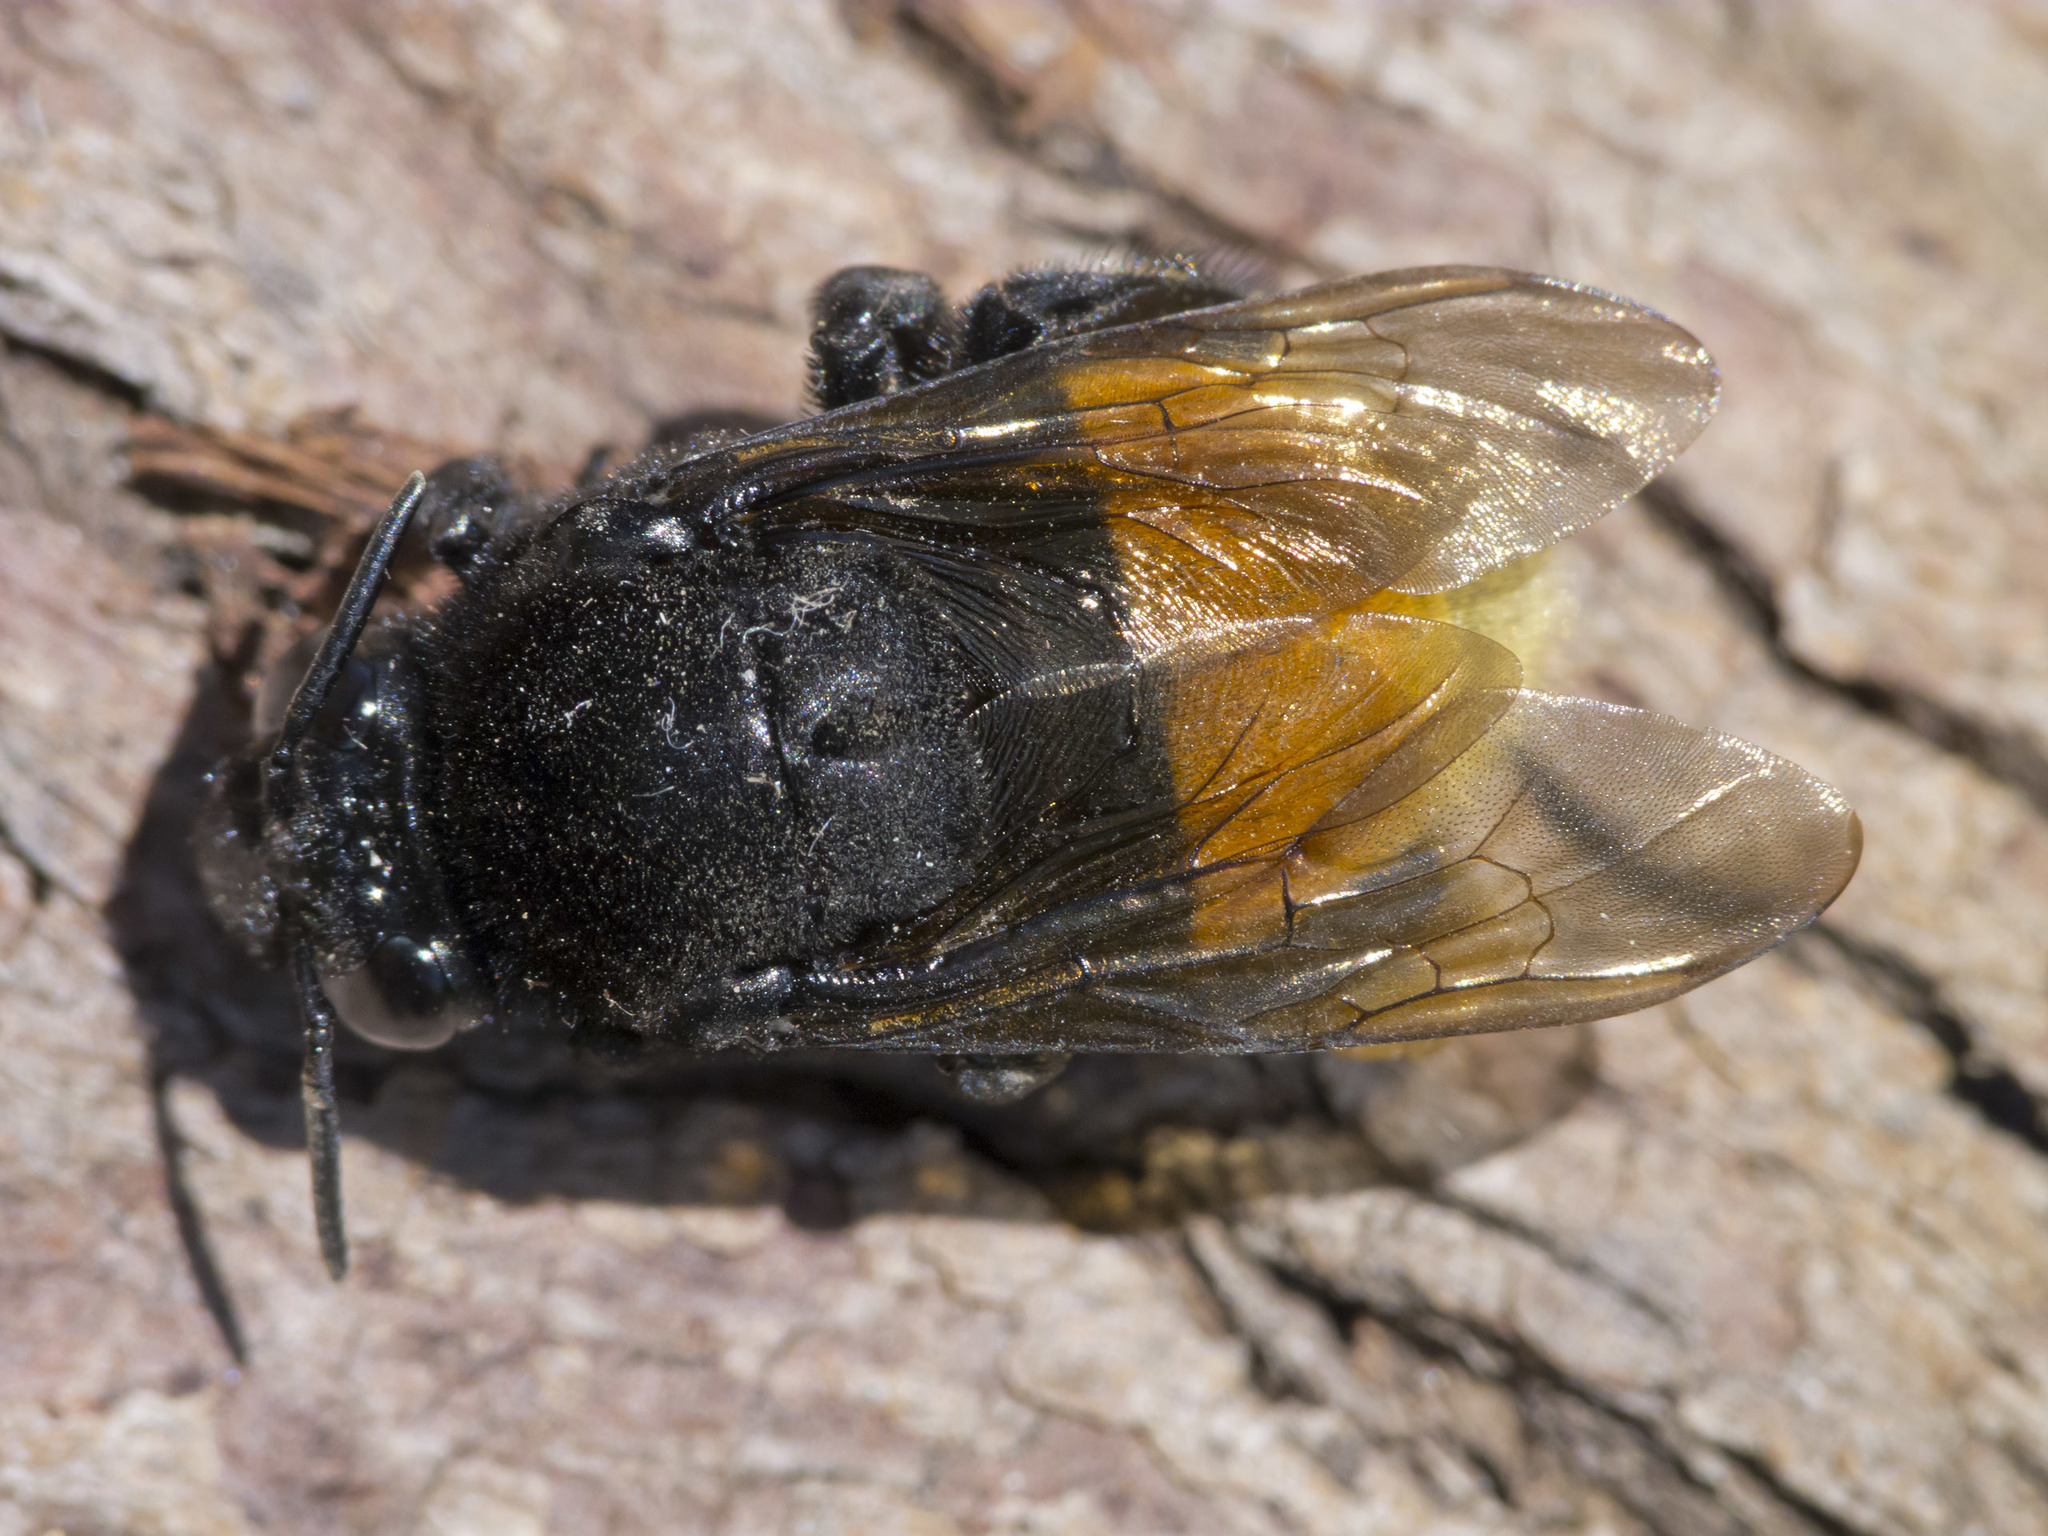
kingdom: Animalia
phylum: Arthropoda
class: Insecta
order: Hymenoptera
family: Apidae
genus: Eulaema
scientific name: Eulaema polychroma
